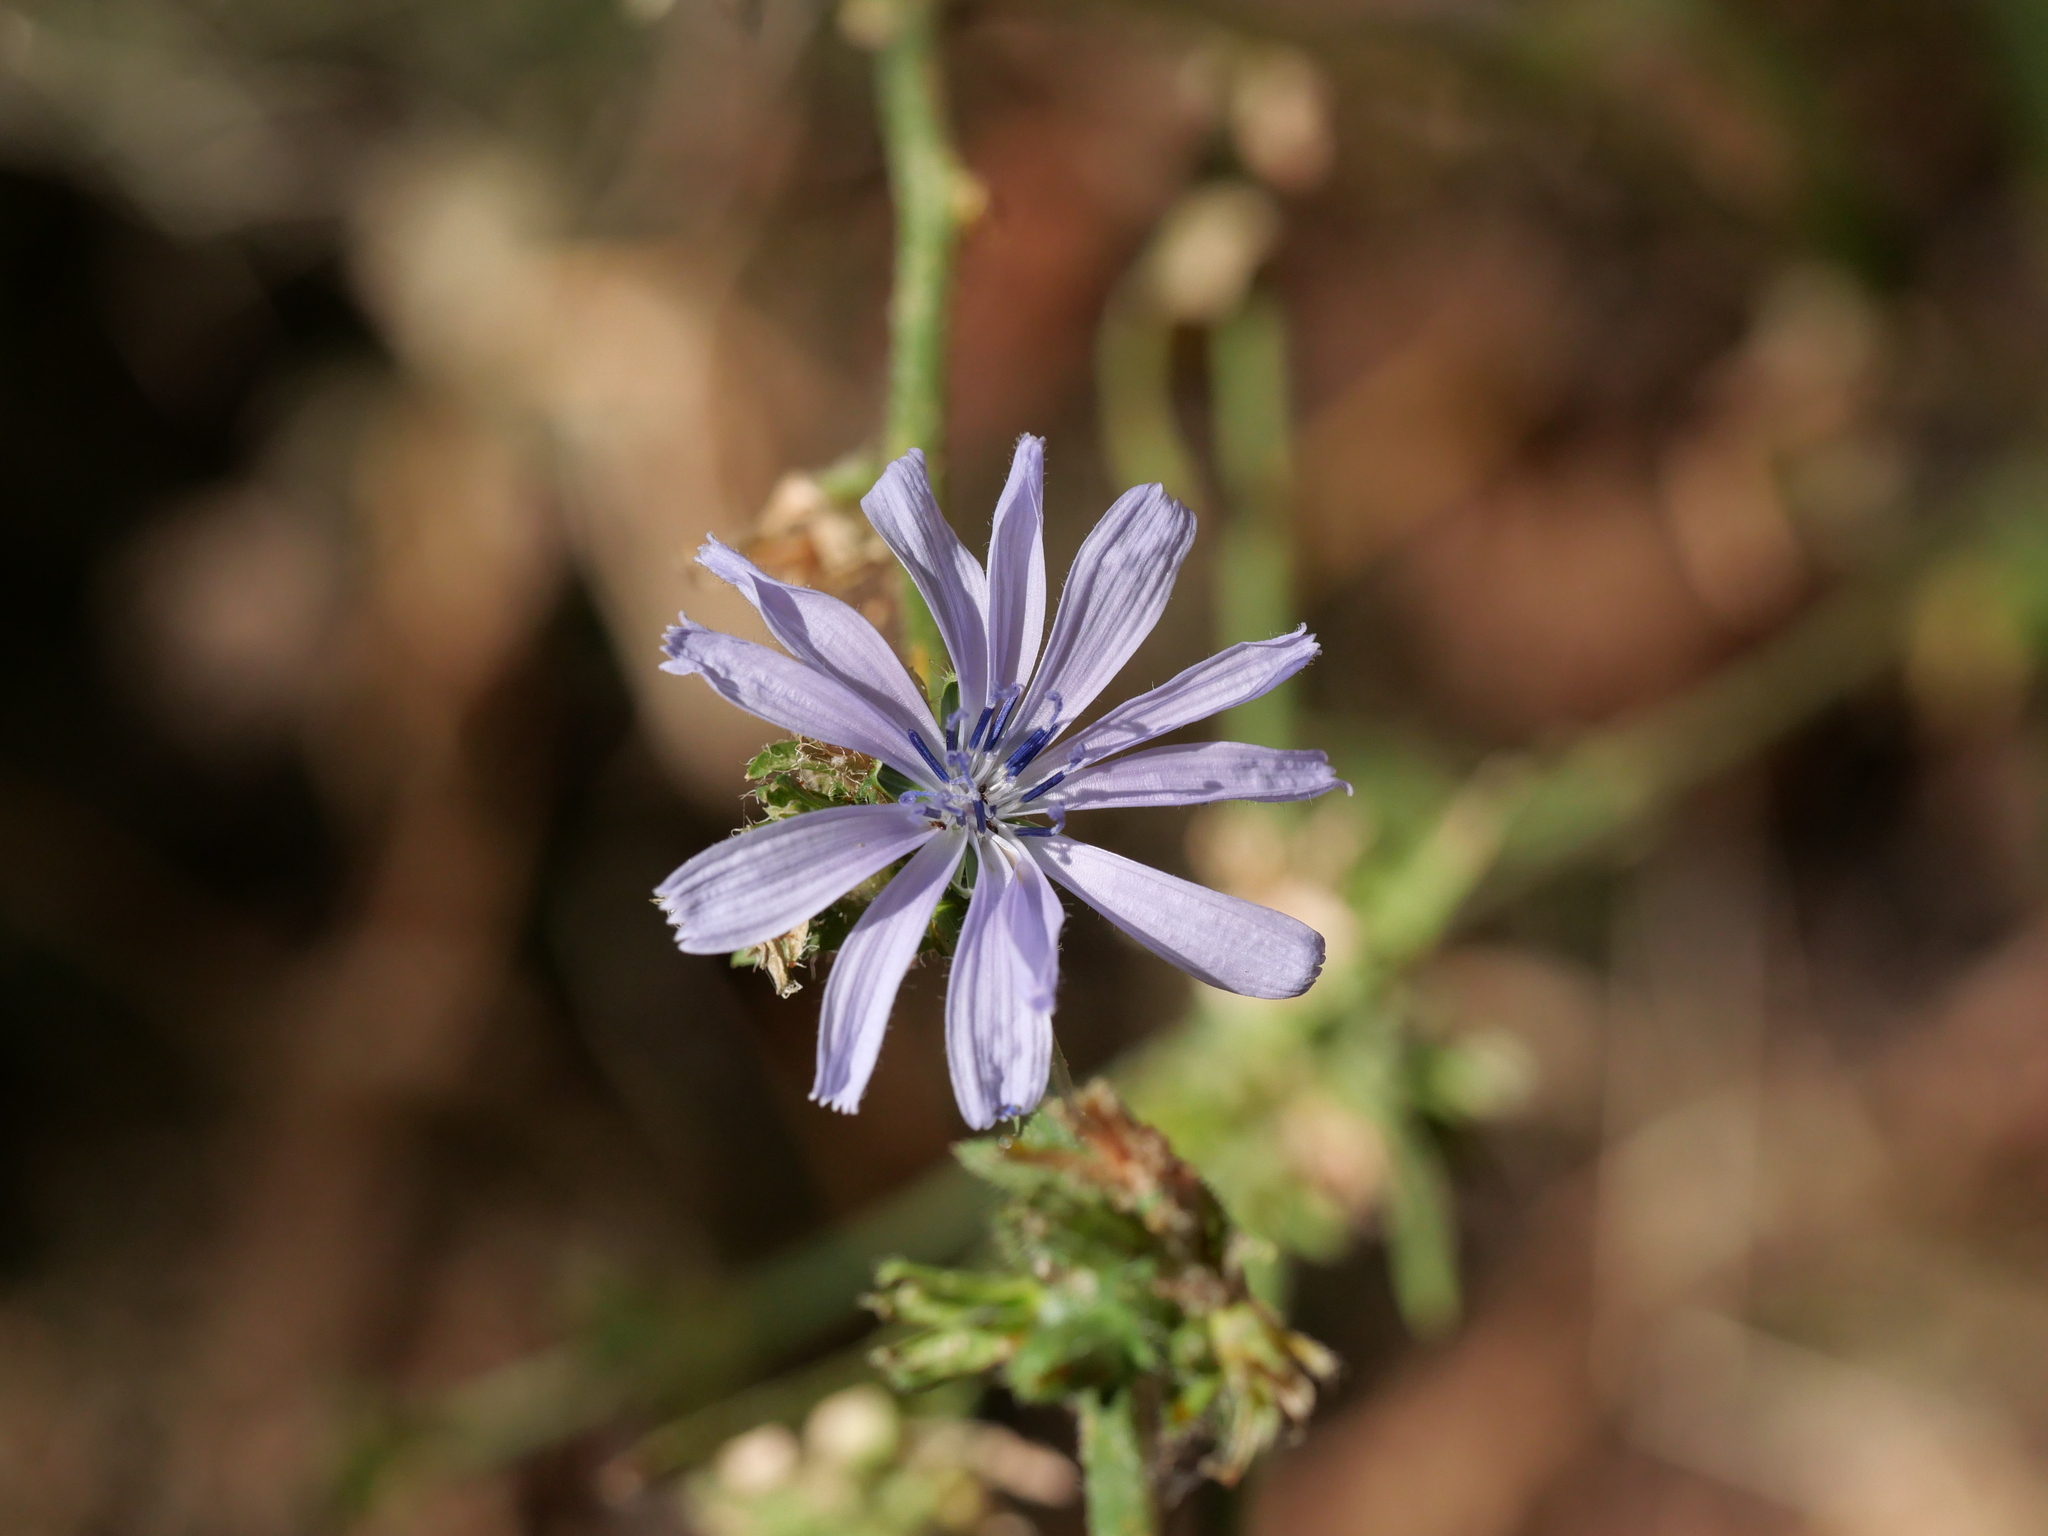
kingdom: Plantae
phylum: Tracheophyta
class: Magnoliopsida
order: Asterales
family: Asteraceae
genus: Cichorium
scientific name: Cichorium intybus
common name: Chicory
